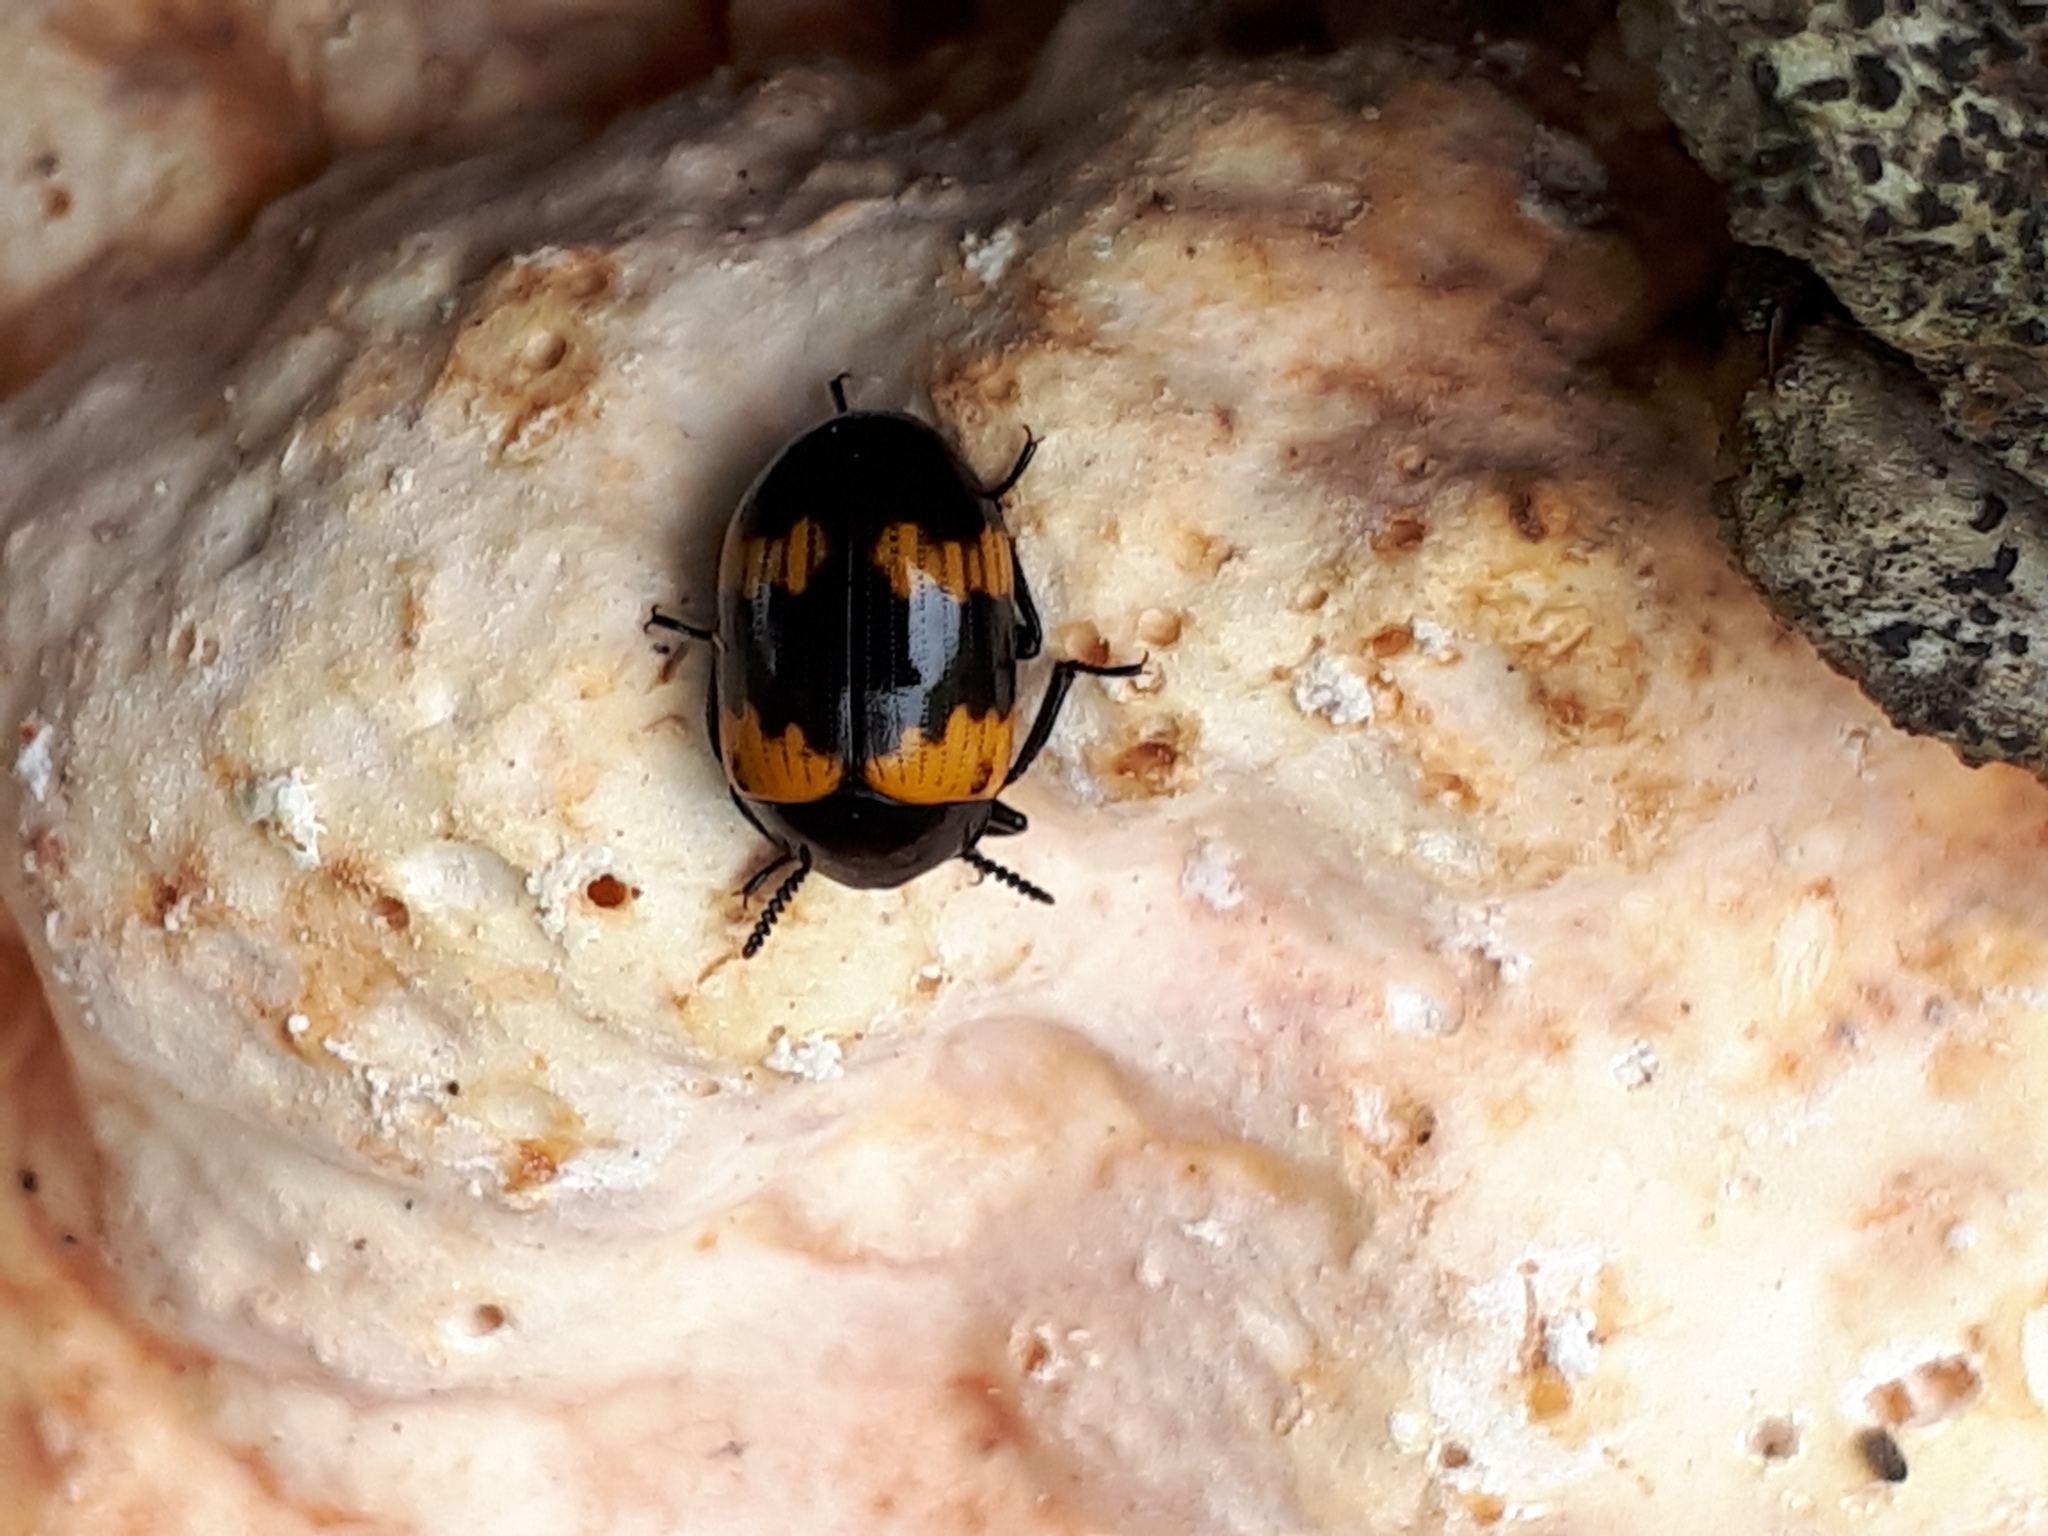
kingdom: Animalia
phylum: Arthropoda
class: Insecta
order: Coleoptera
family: Tenebrionidae
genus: Diaperis
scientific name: Diaperis boleti
